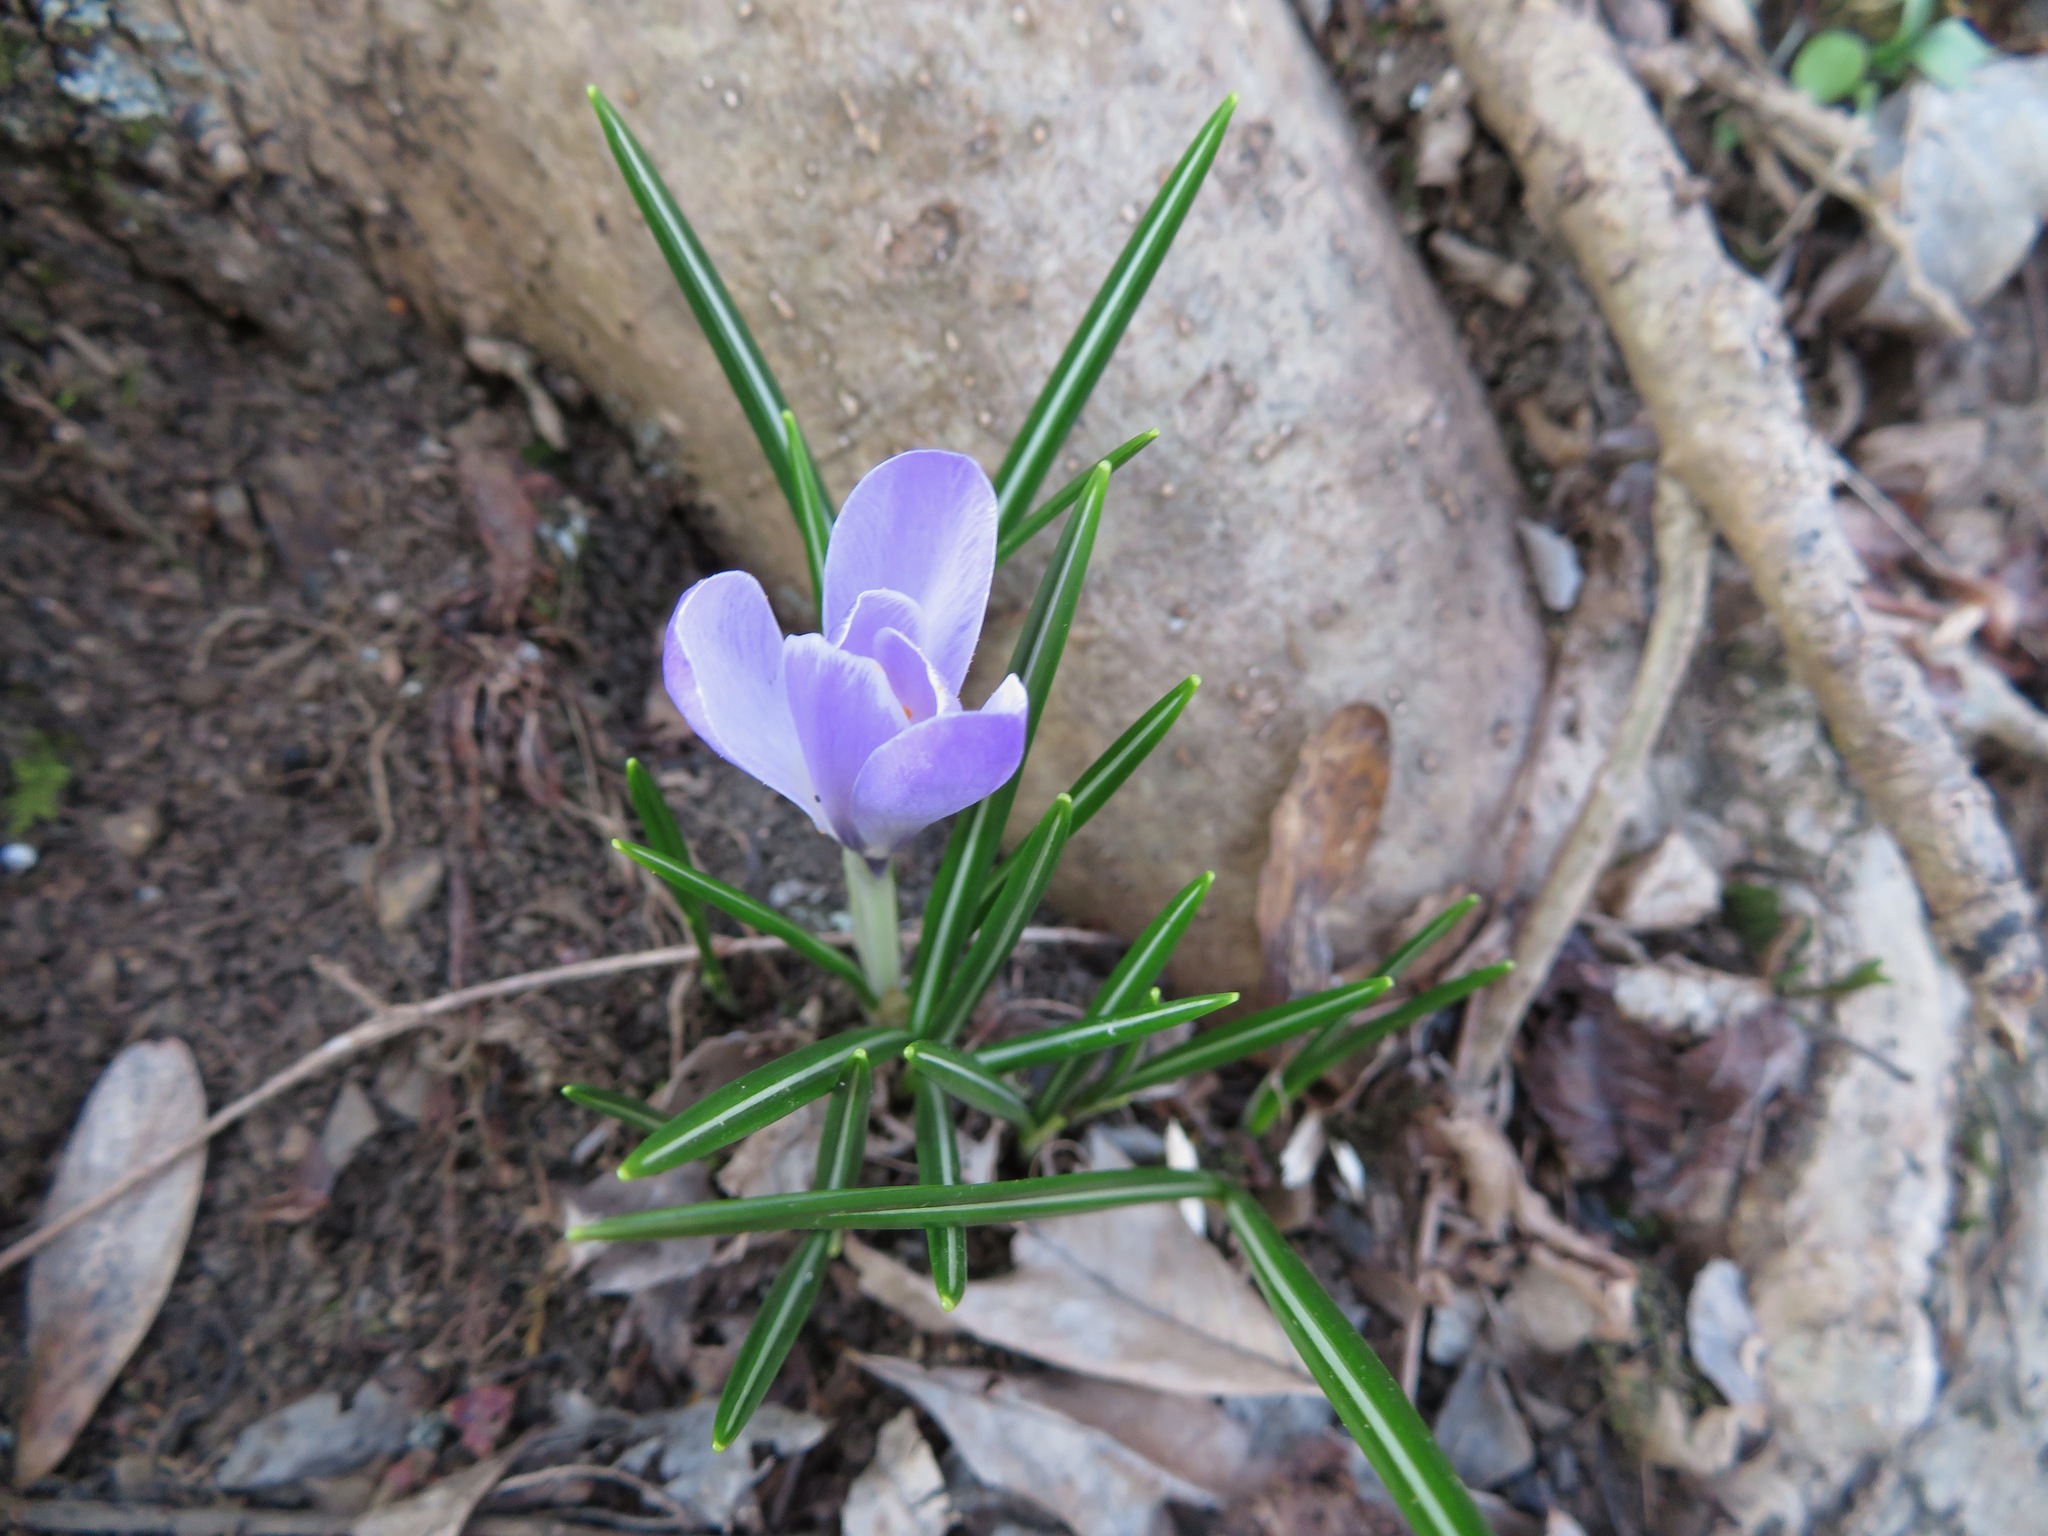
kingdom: Plantae
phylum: Tracheophyta
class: Liliopsida
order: Asparagales
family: Iridaceae
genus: Crocus
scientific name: Crocus vernus
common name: Spring crocus
